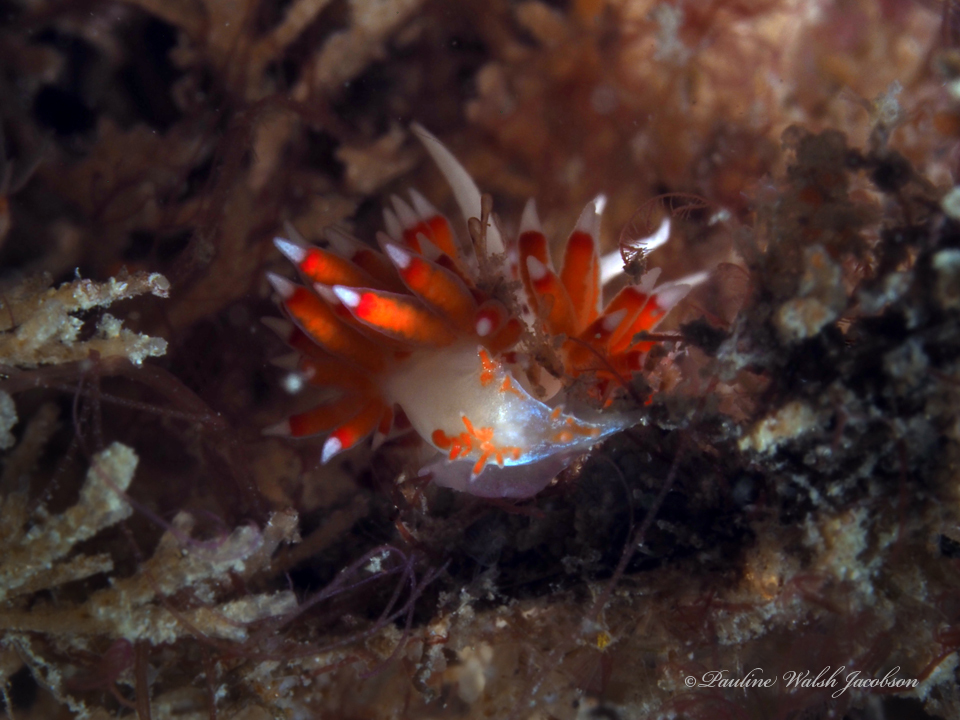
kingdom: Animalia
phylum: Mollusca
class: Gastropoda
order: Nudibranchia
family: Flabellinidae
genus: Flabellina
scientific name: Flabellina dushia
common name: Dushia flabellina
